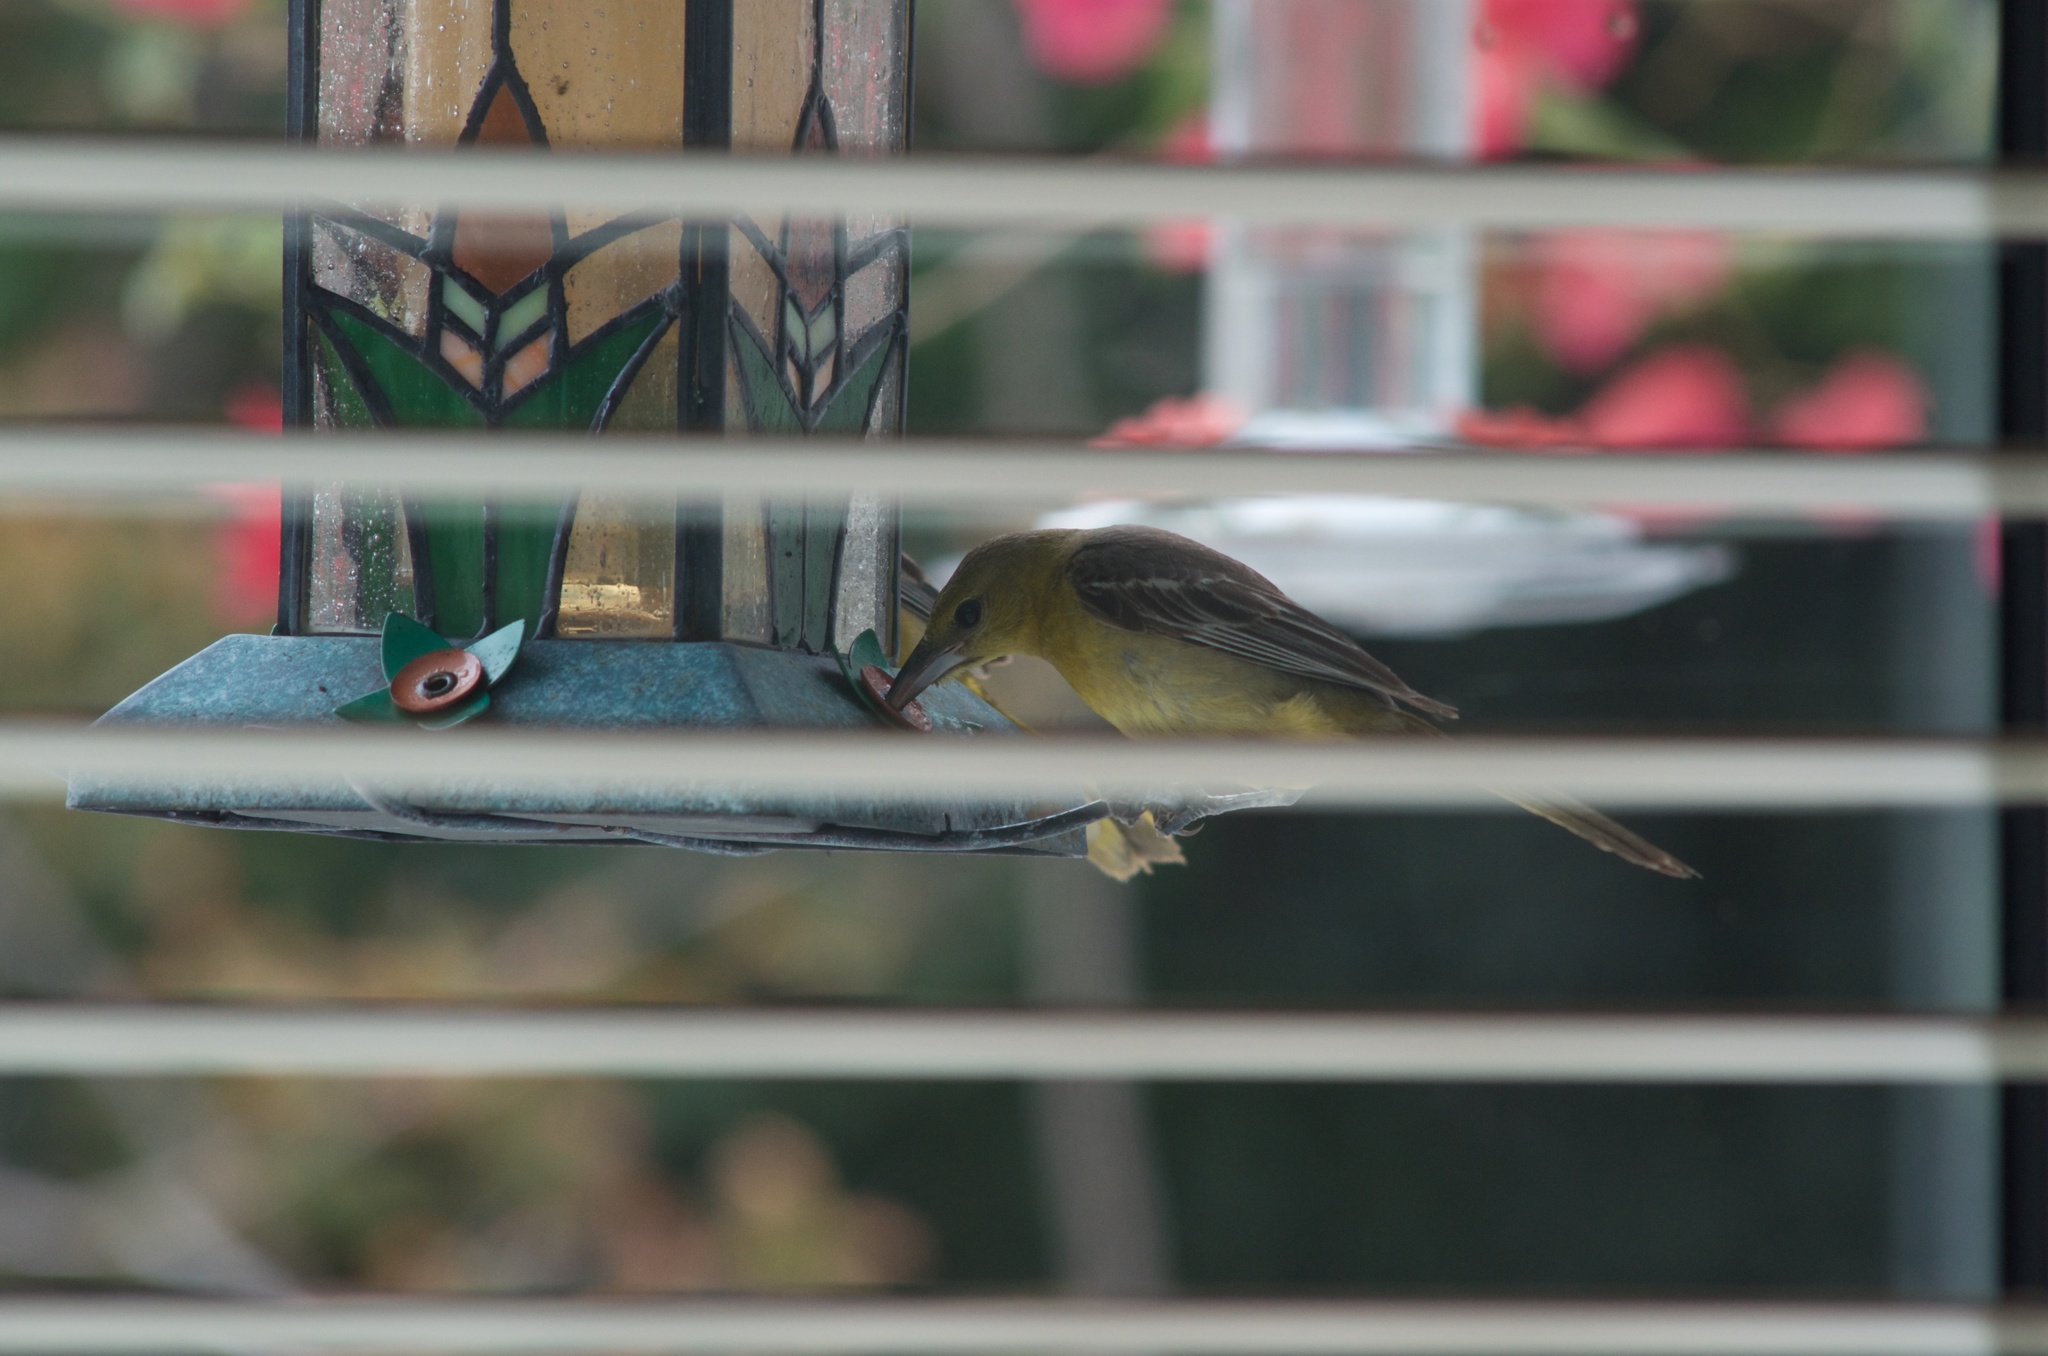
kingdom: Animalia
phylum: Chordata
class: Aves
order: Passeriformes
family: Icteridae
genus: Icterus
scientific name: Icterus cucullatus
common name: Hooded oriole
